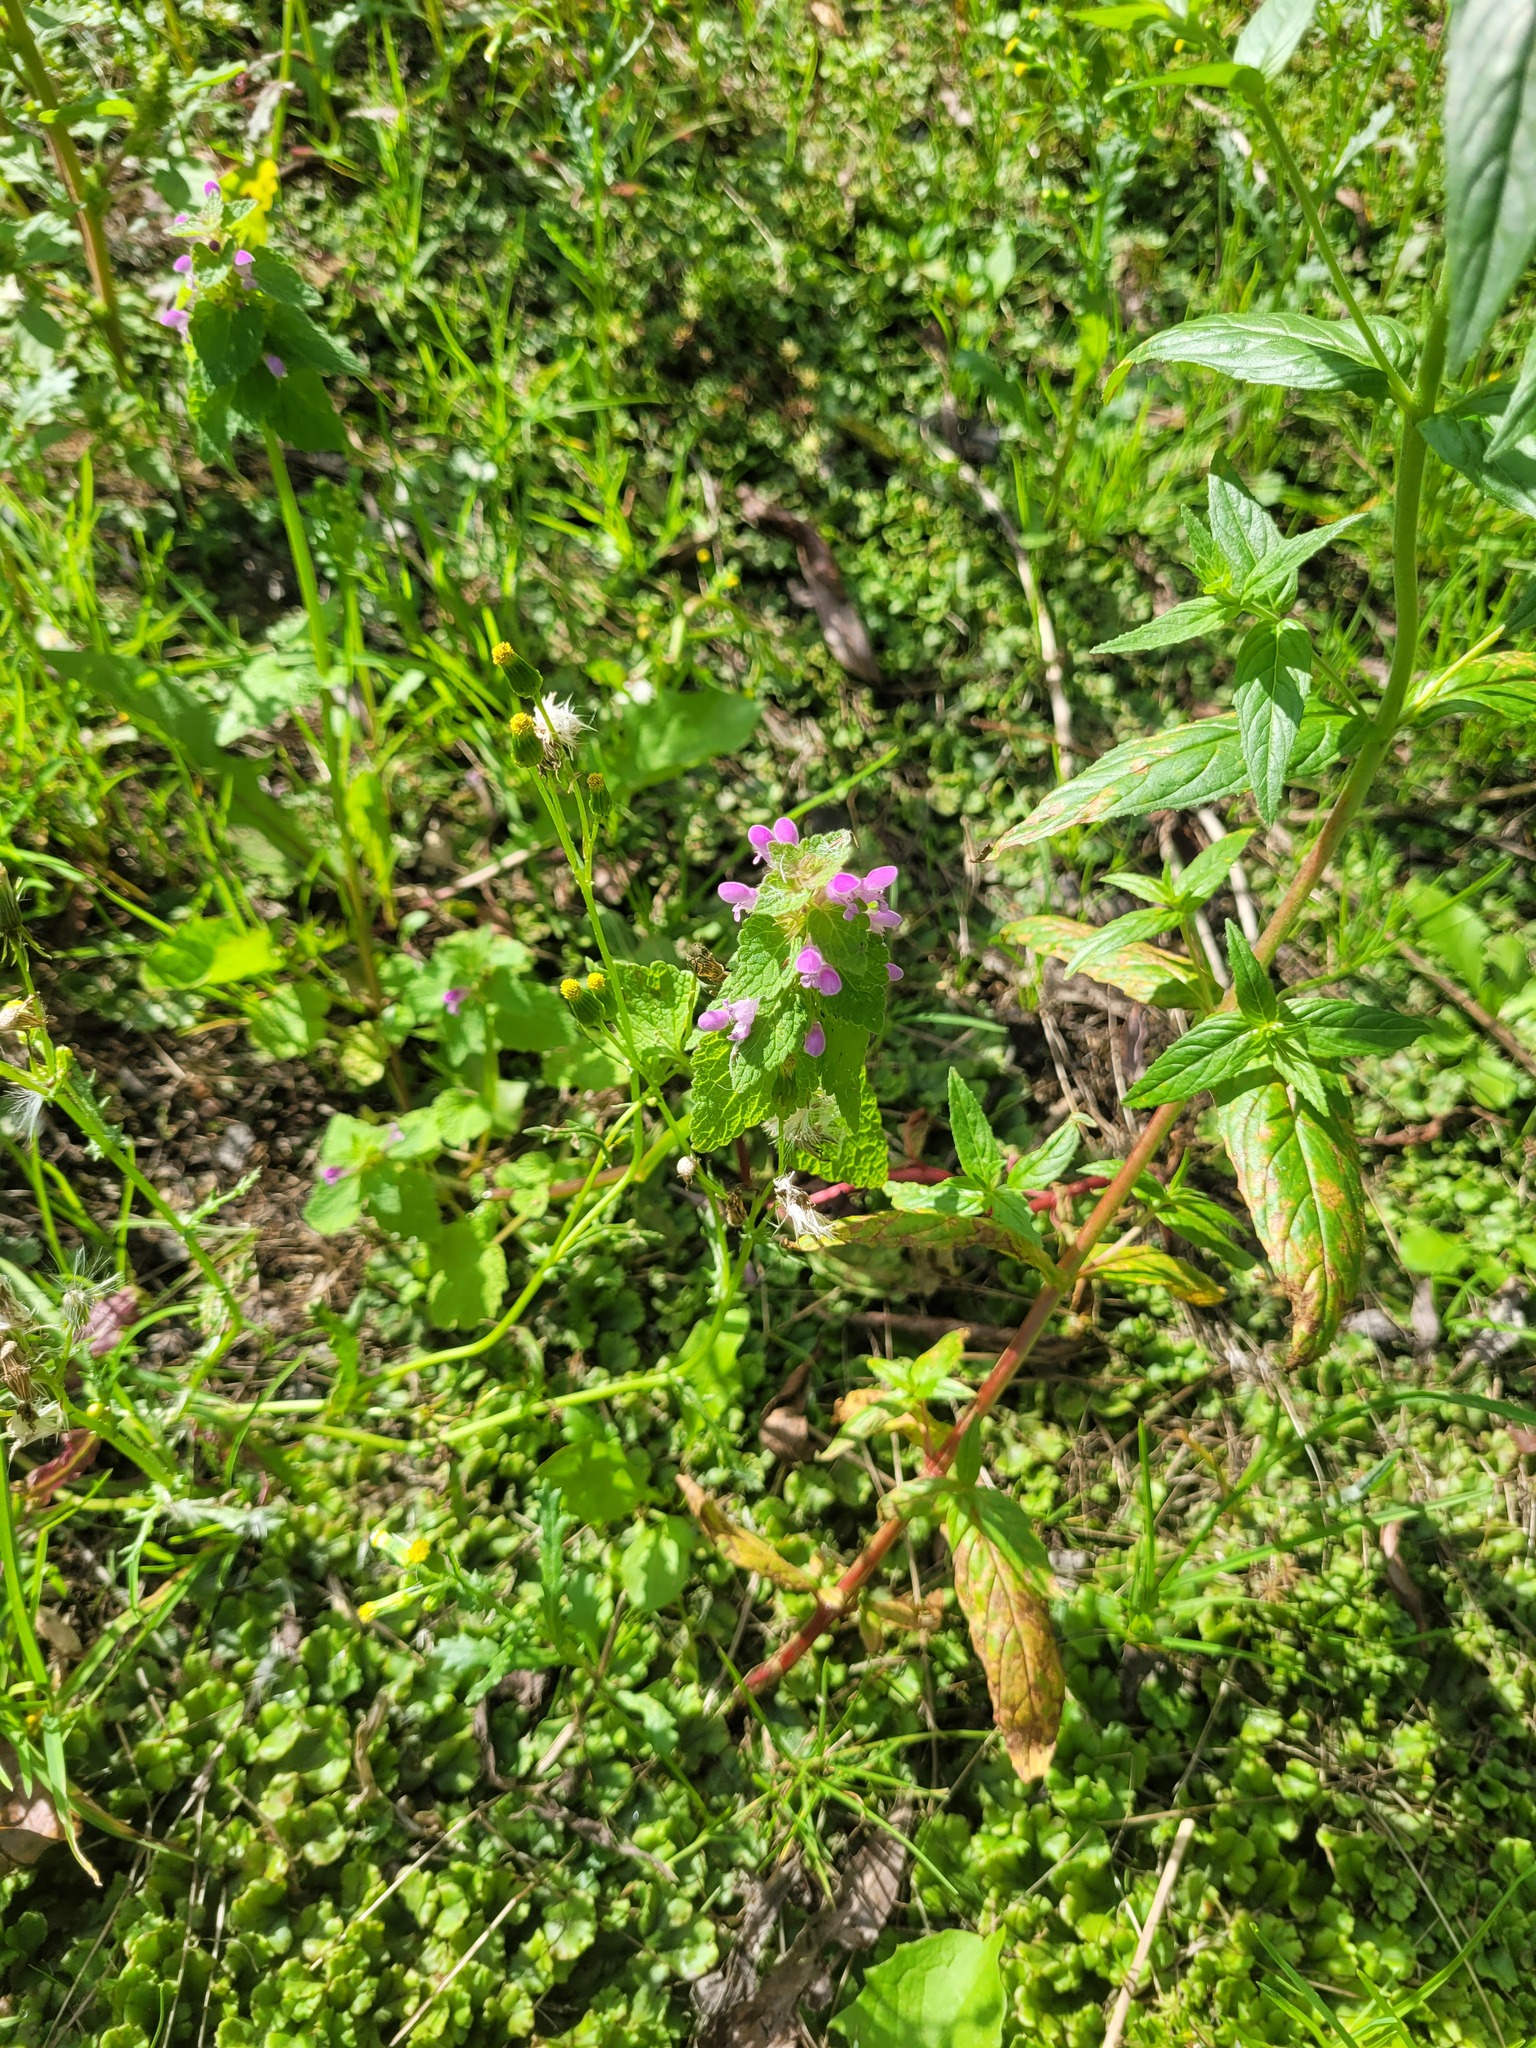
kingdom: Plantae
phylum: Tracheophyta
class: Magnoliopsida
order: Lamiales
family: Lamiaceae
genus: Lamium
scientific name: Lamium purpureum
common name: Red dead-nettle
